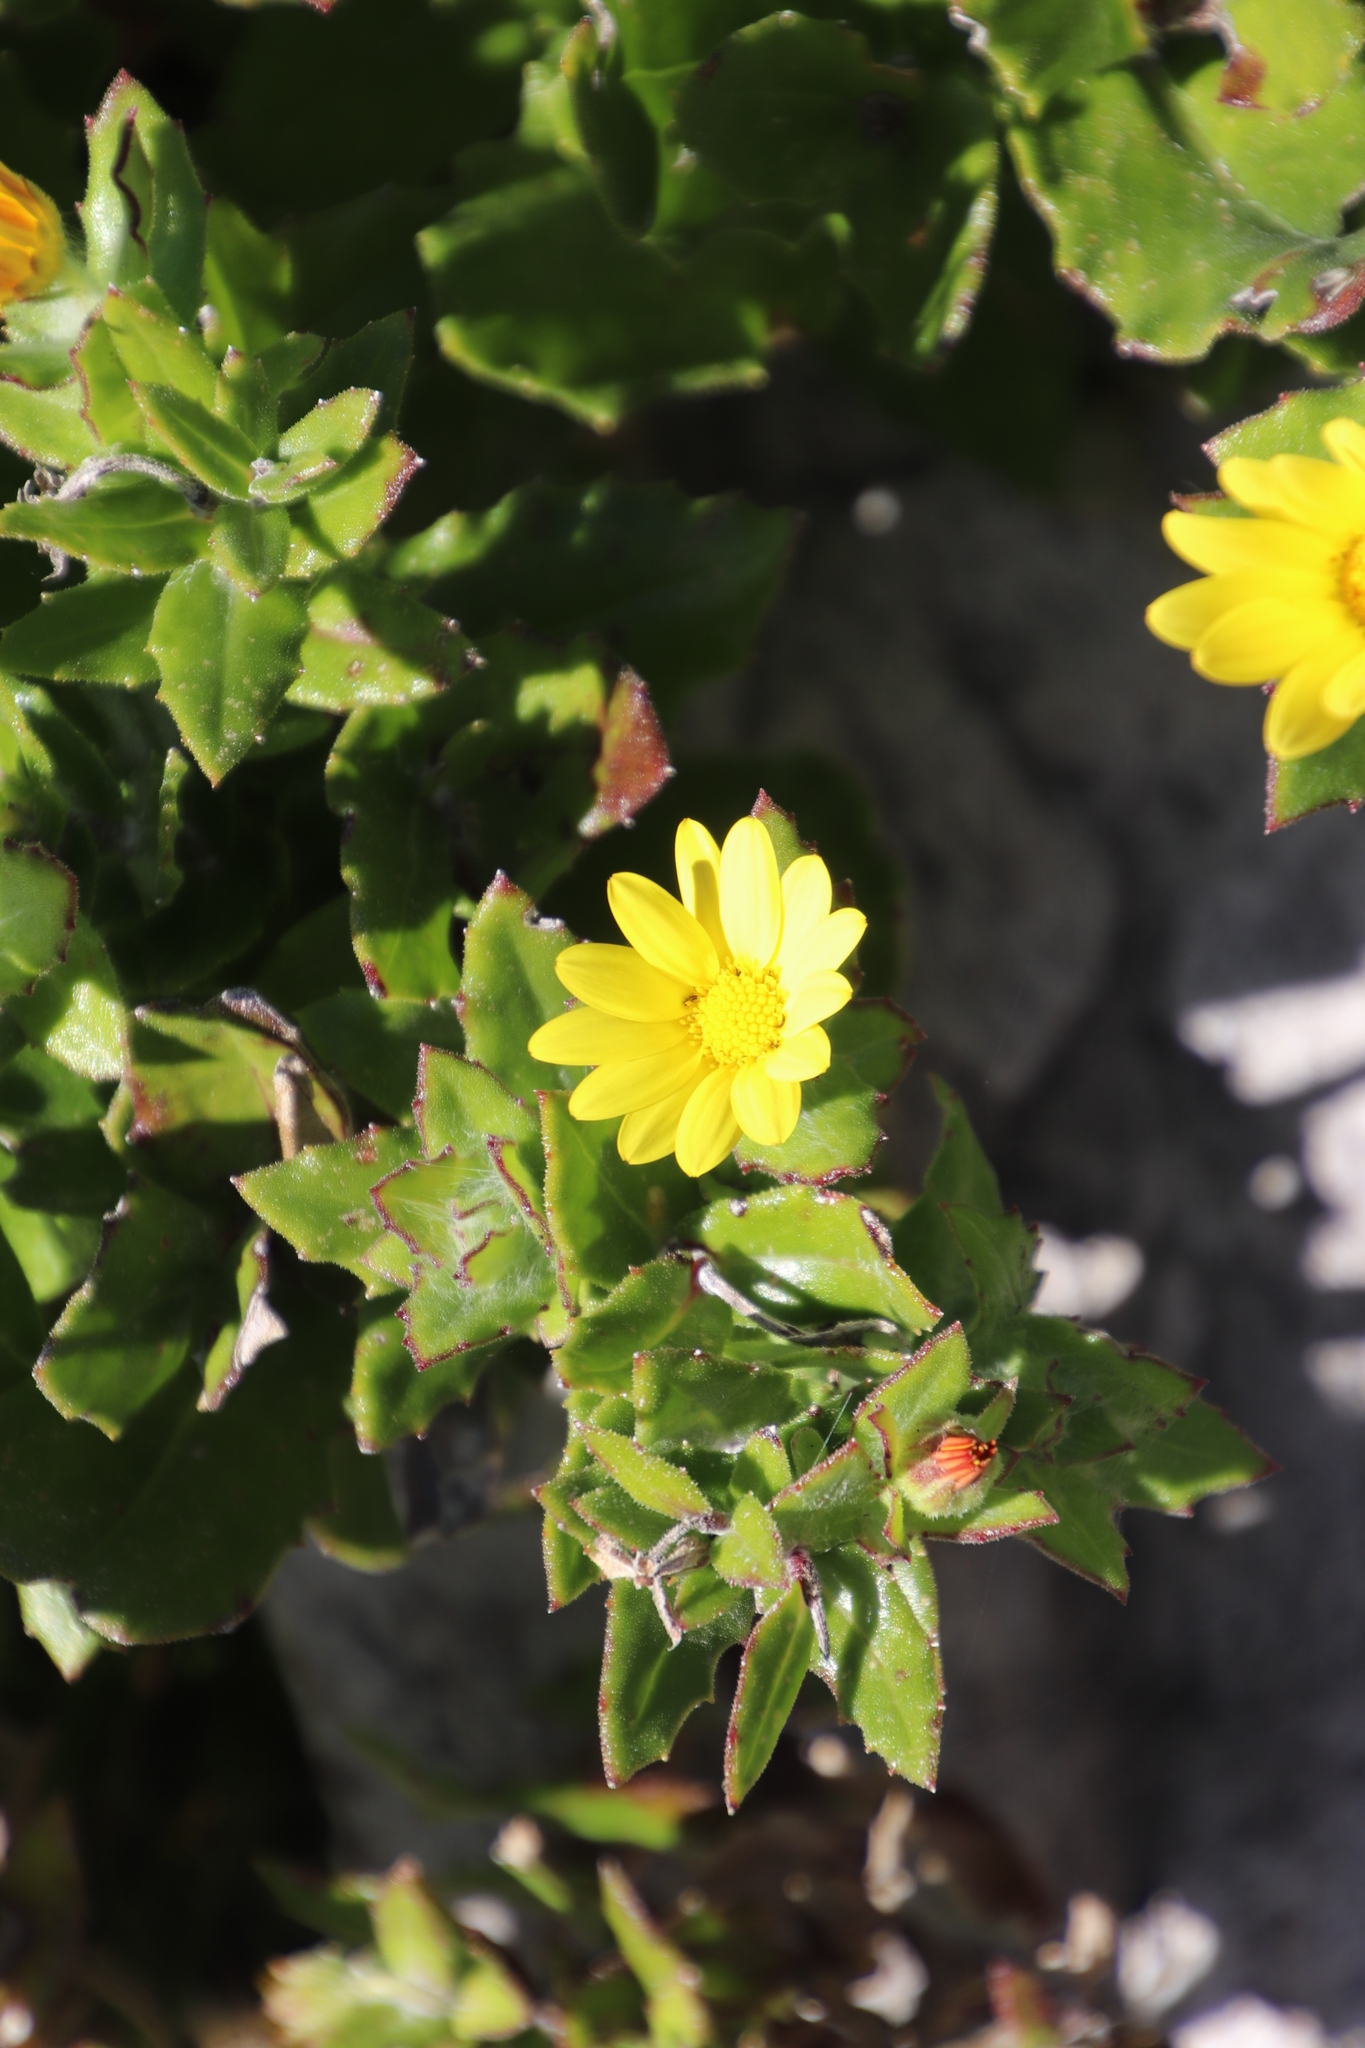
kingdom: Plantae
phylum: Tracheophyta
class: Magnoliopsida
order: Asterales
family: Asteraceae
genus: Osteospermum
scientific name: Osteospermum ilicifolium
